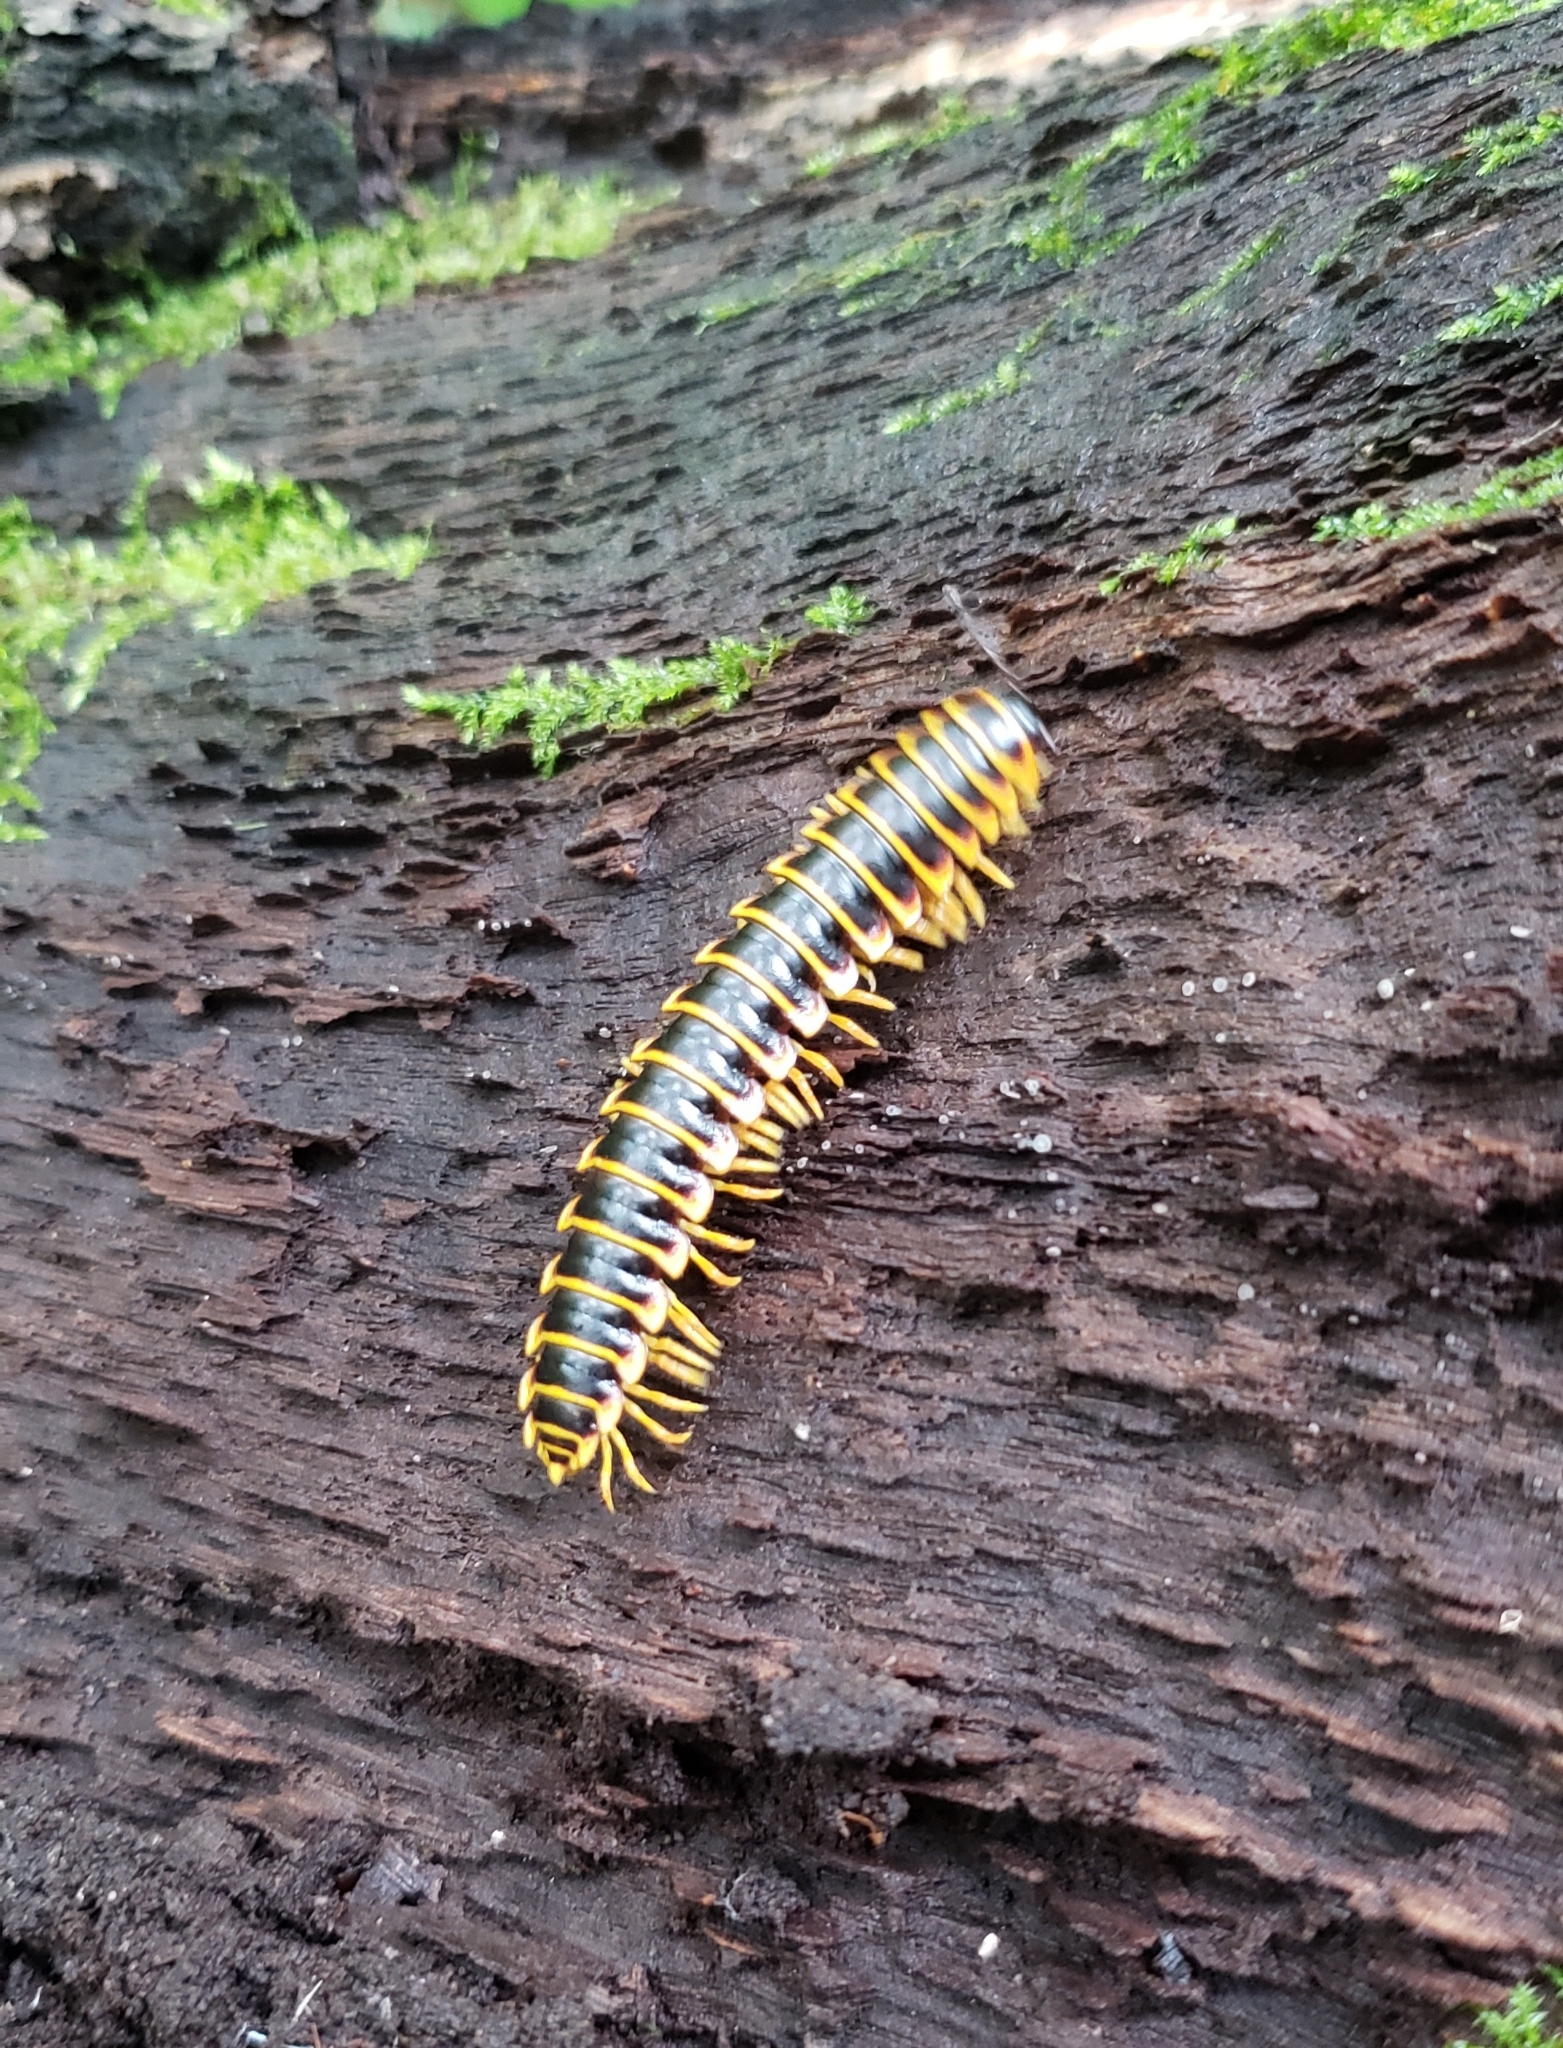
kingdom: Animalia
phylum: Arthropoda
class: Diplopoda
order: Polydesmida
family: Xystodesmidae
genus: Apheloria
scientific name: Apheloria virginiensis
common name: Black-and-gold flat millipede
